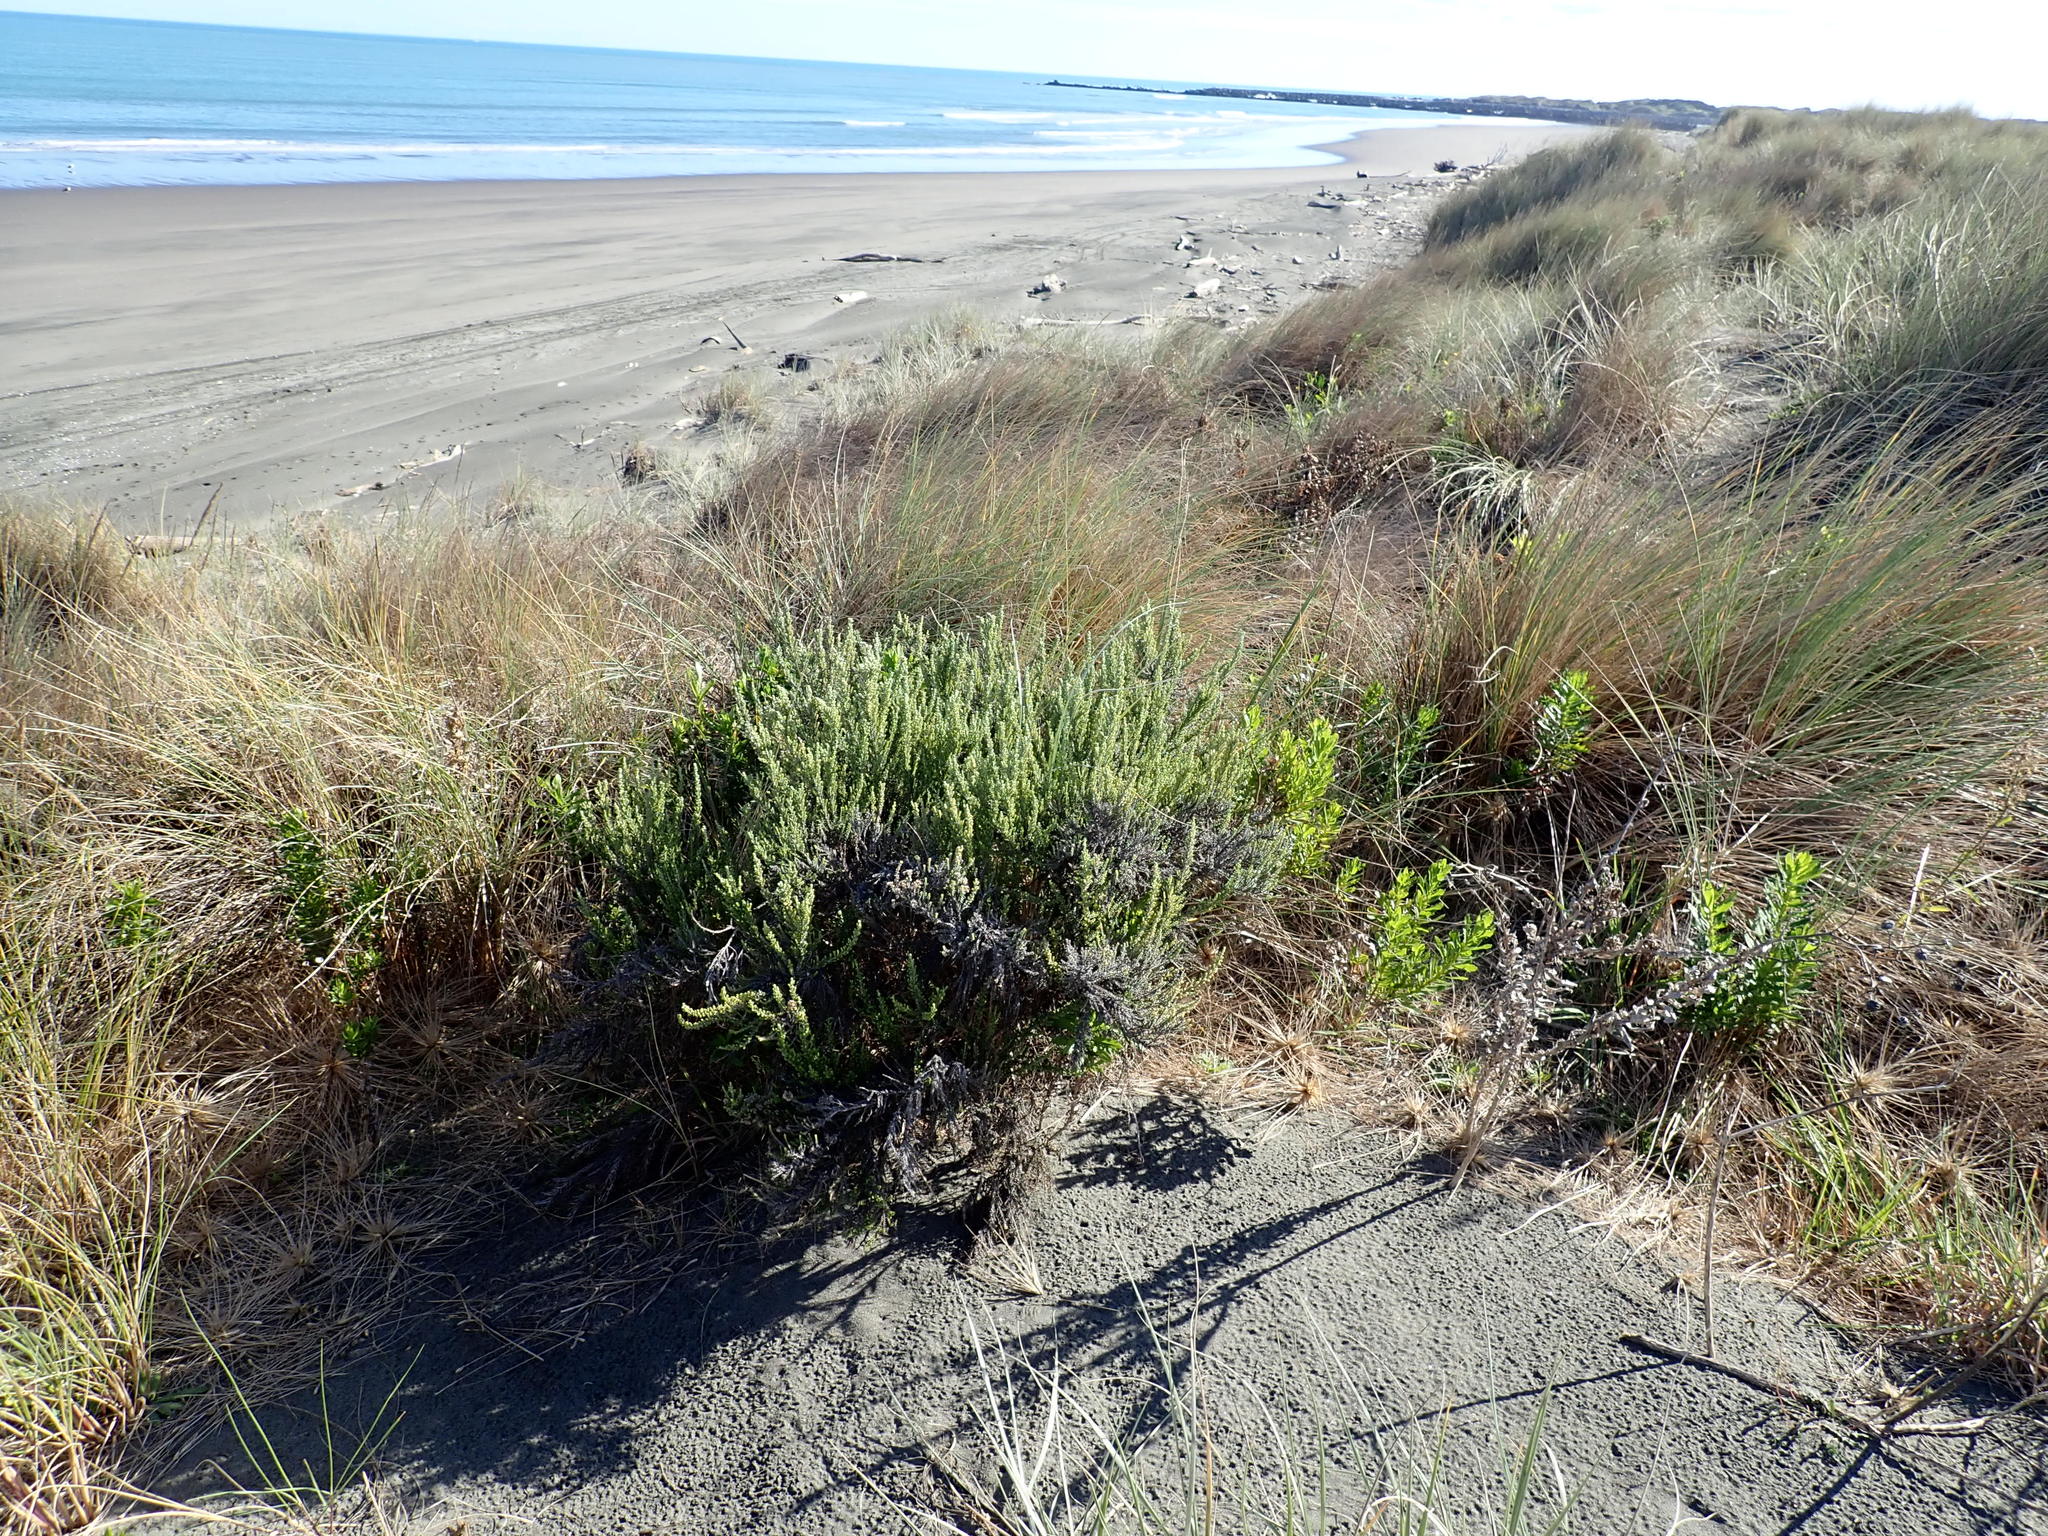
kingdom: Plantae
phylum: Tracheophyta
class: Magnoliopsida
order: Asterales
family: Asteraceae
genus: Ozothamnus
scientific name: Ozothamnus leptophyllus
